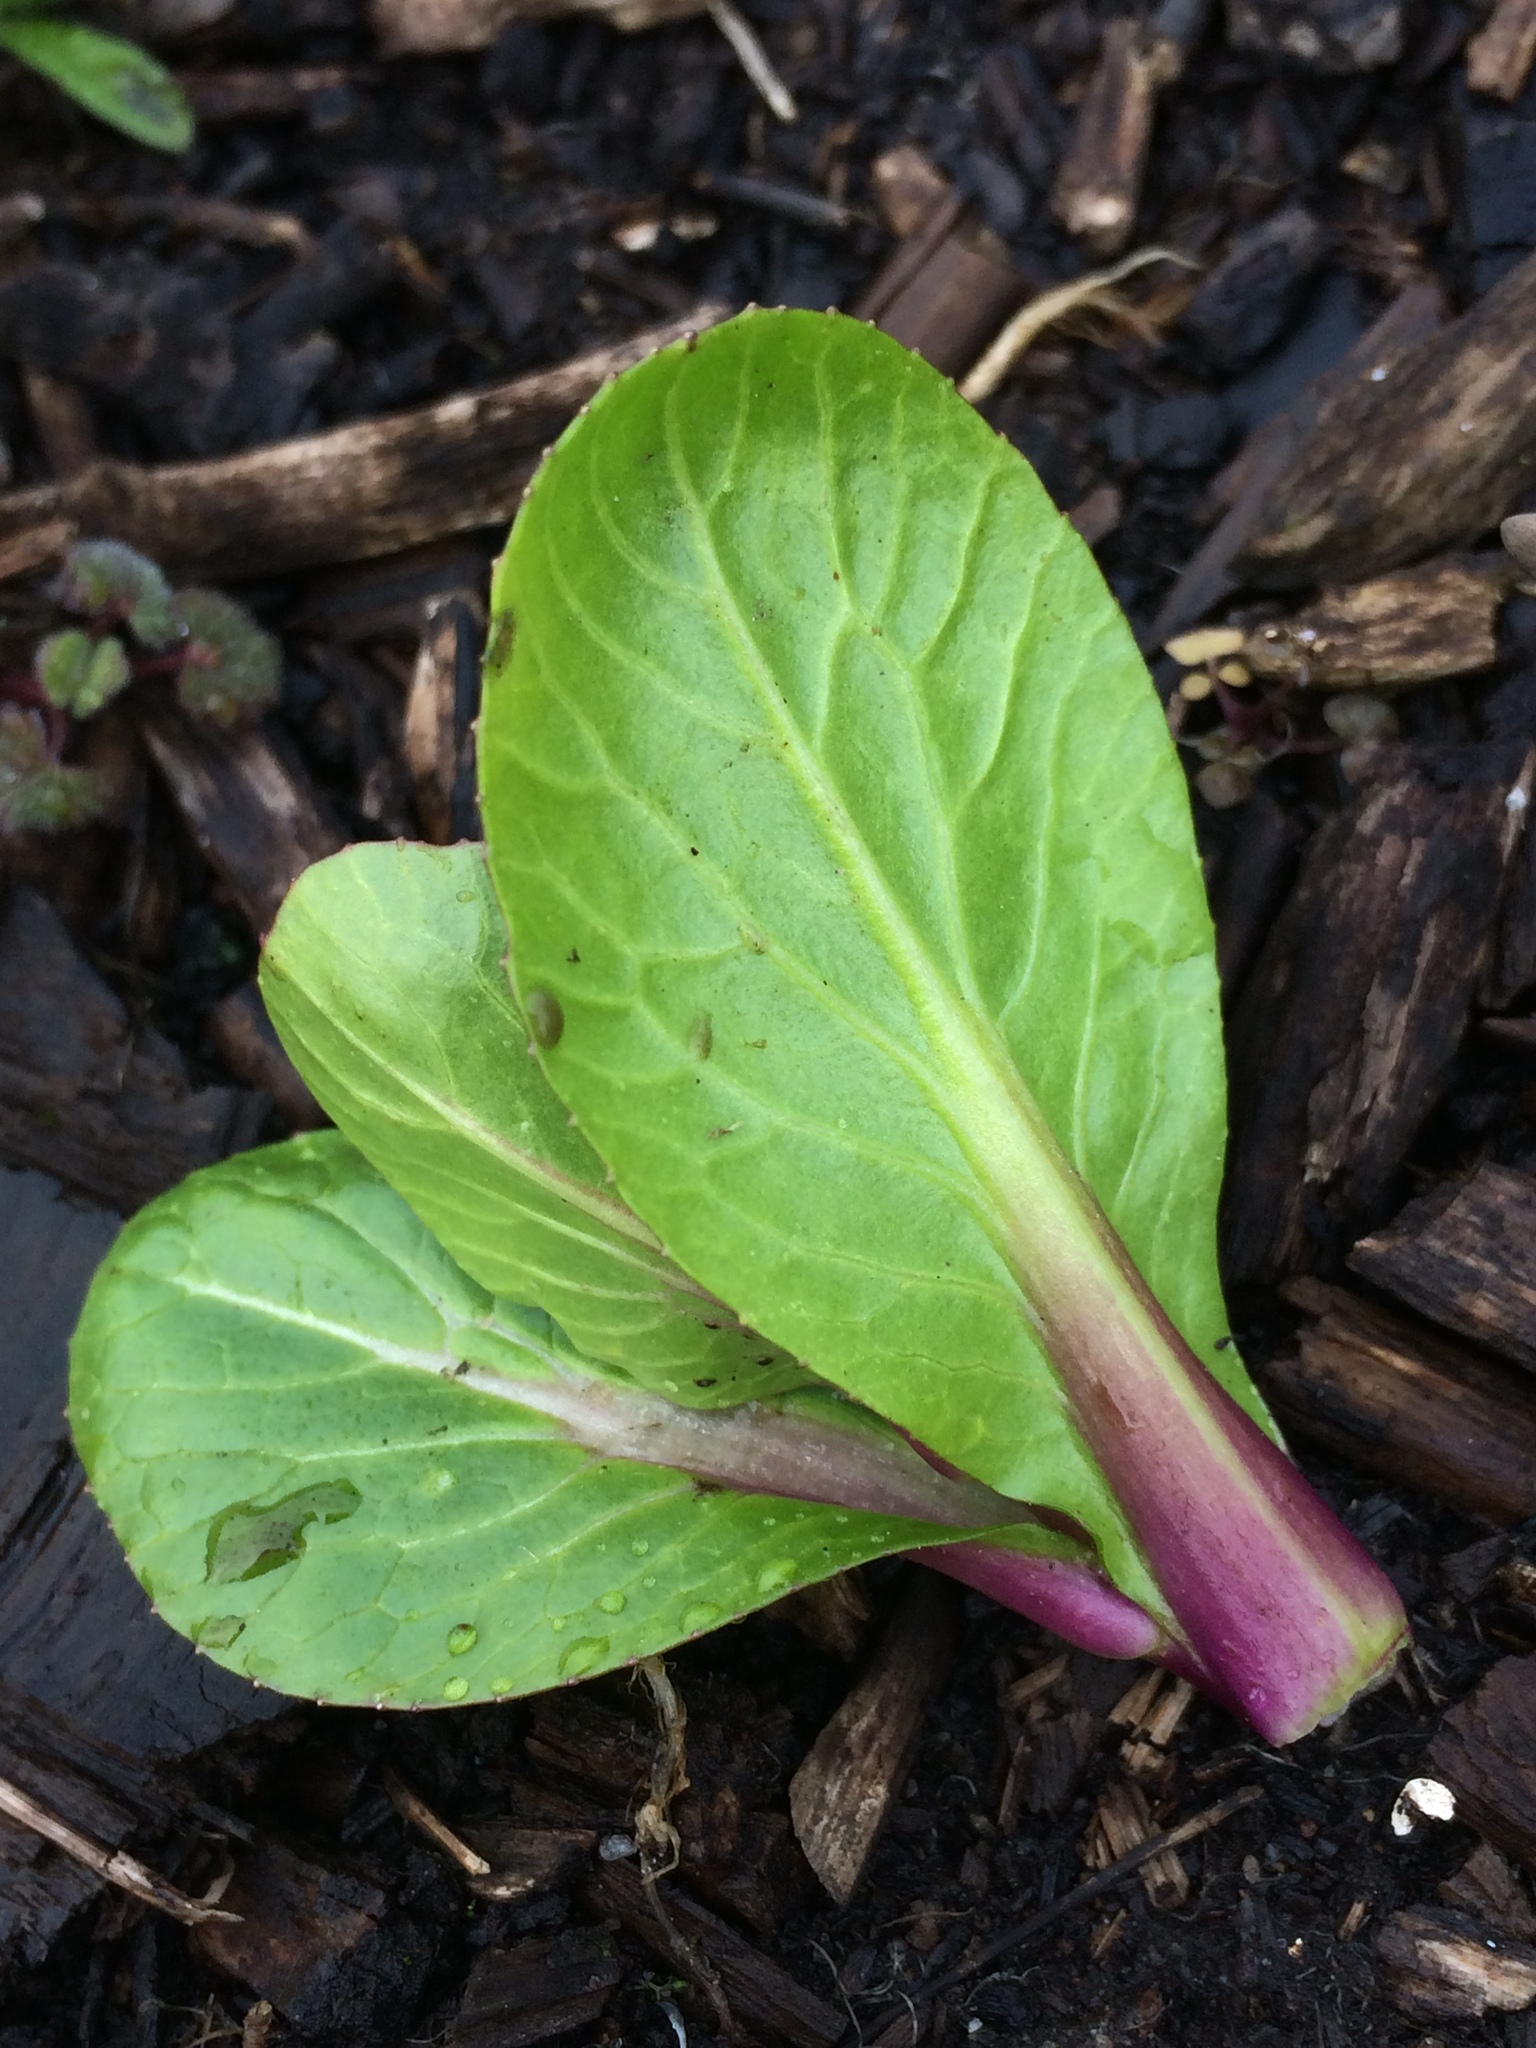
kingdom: Plantae
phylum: Tracheophyta
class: Magnoliopsida
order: Brassicales
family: Brassicaceae
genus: Brassica
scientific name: Brassica rapa
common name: Field mustard
